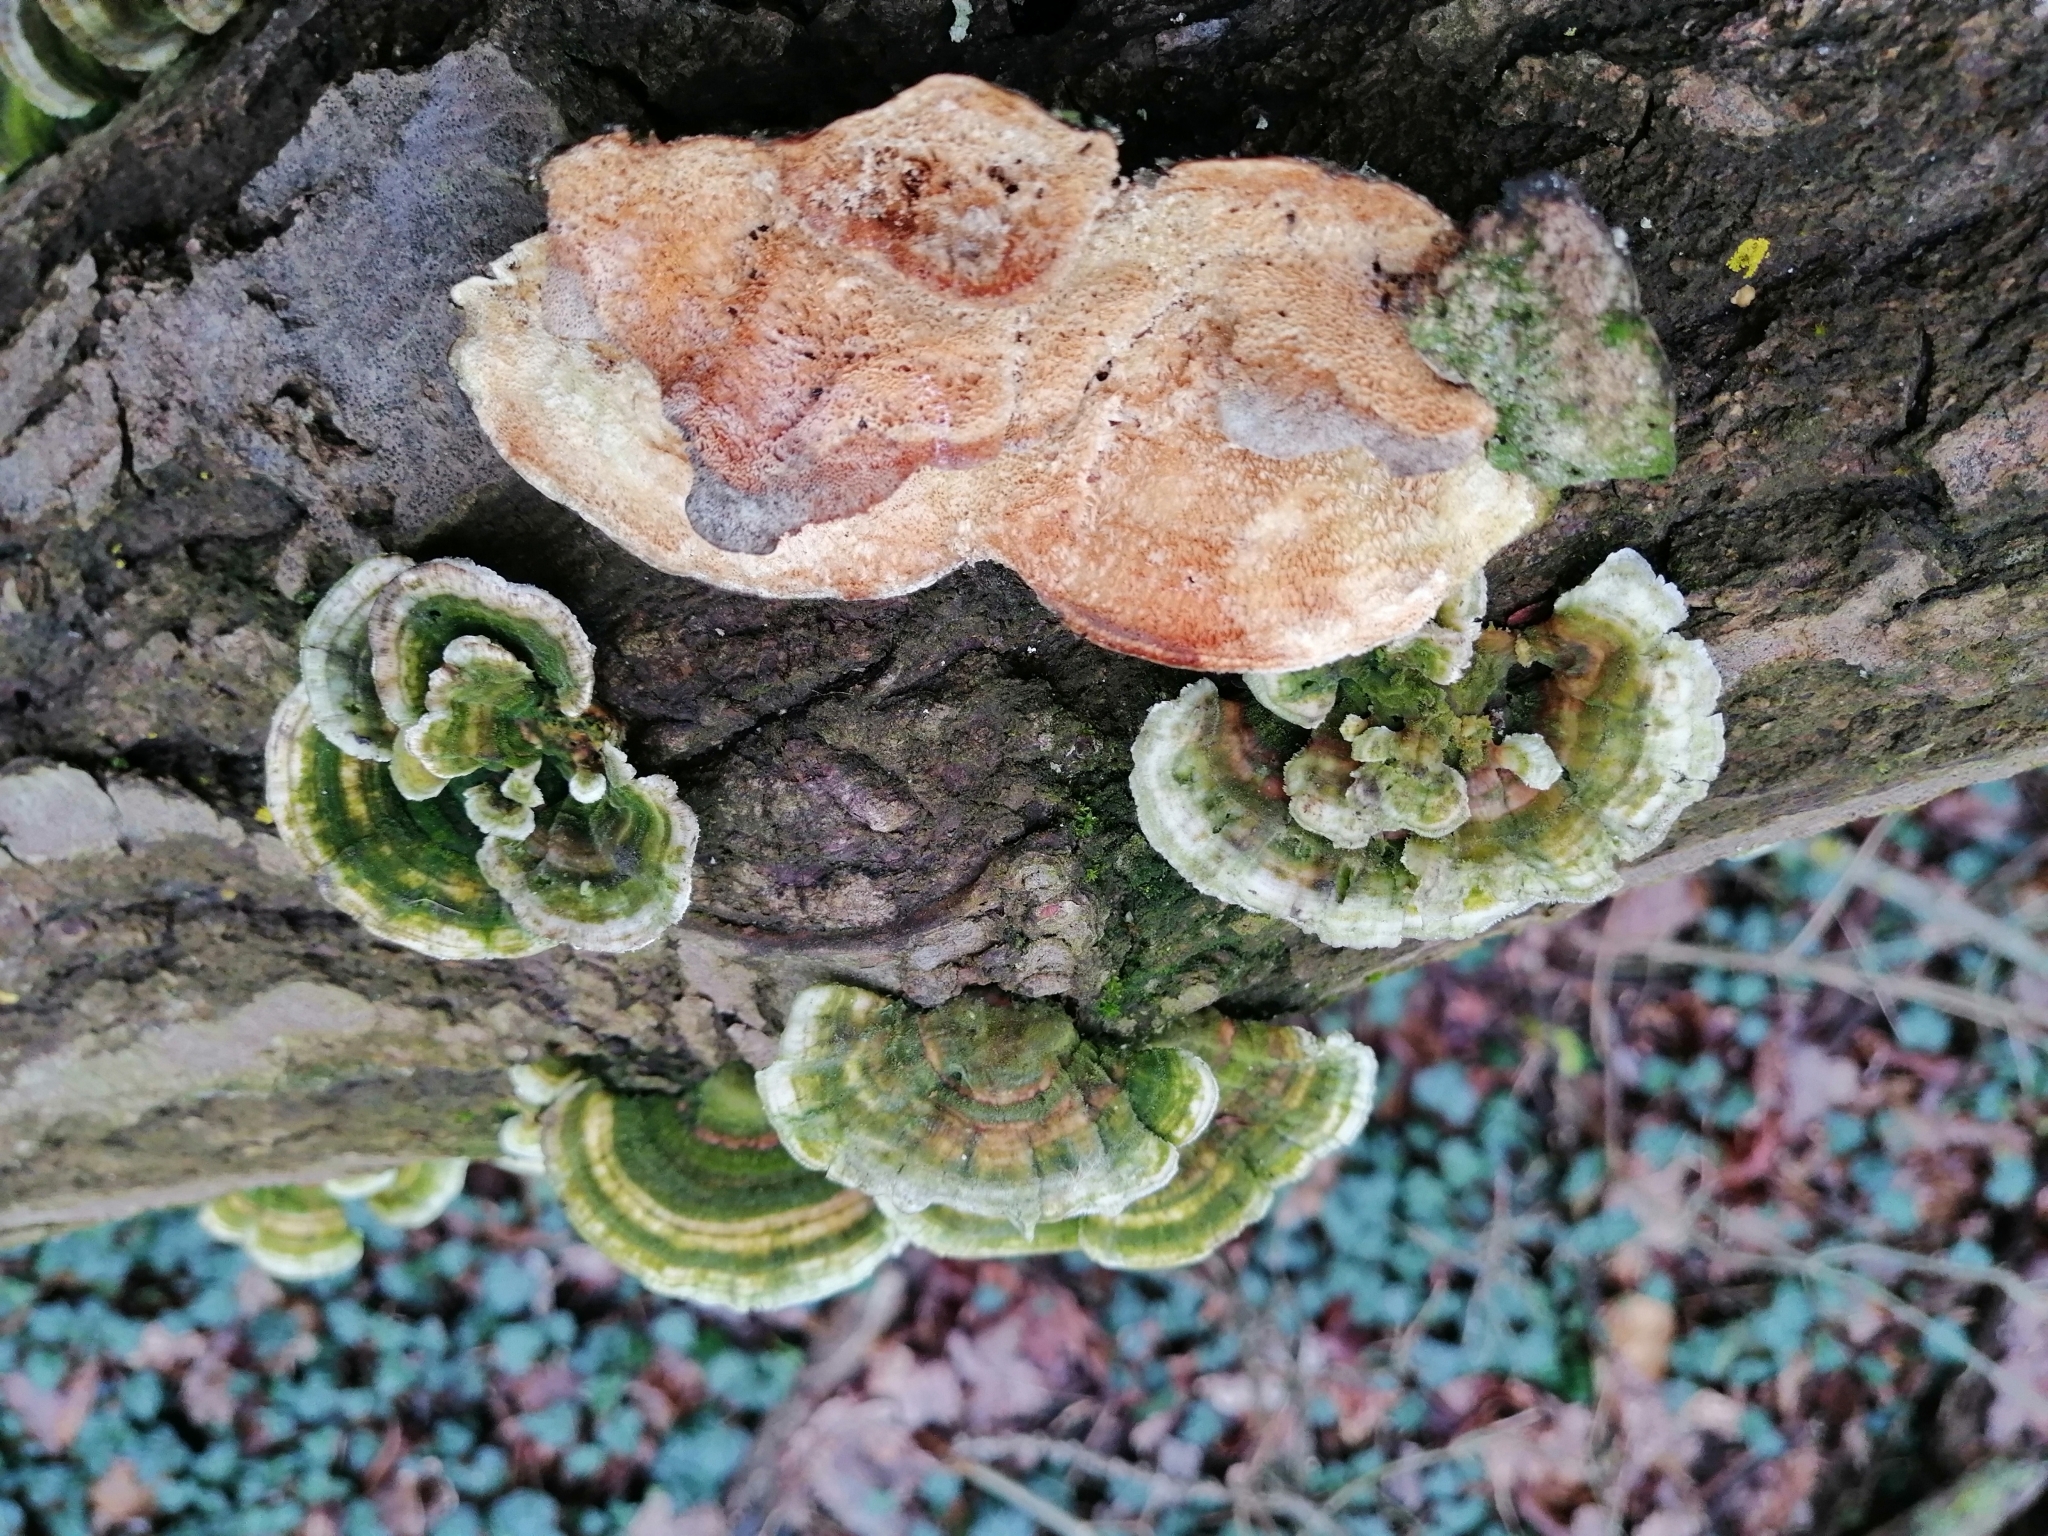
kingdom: Fungi
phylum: Basidiomycota
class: Agaricomycetes
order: Polyporales
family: Polyporaceae
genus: Trametes
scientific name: Trametes hirsuta
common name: Hairy bracket
